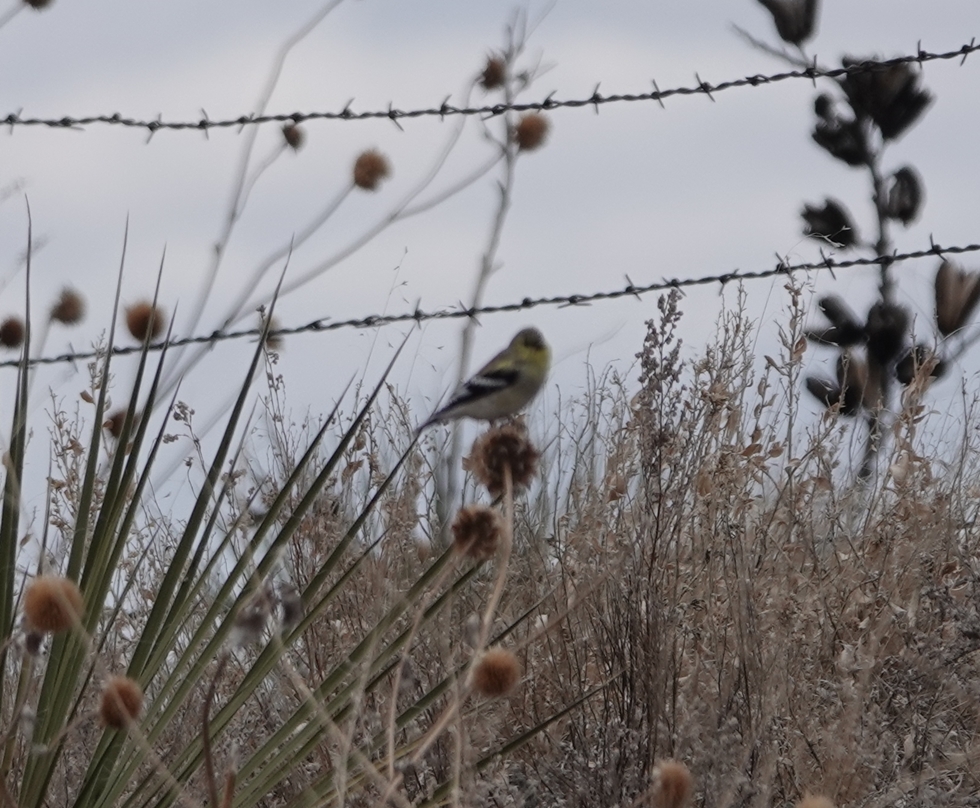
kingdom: Animalia
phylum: Chordata
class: Aves
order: Passeriformes
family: Fringillidae
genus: Spinus
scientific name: Spinus tristis
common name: American goldfinch
